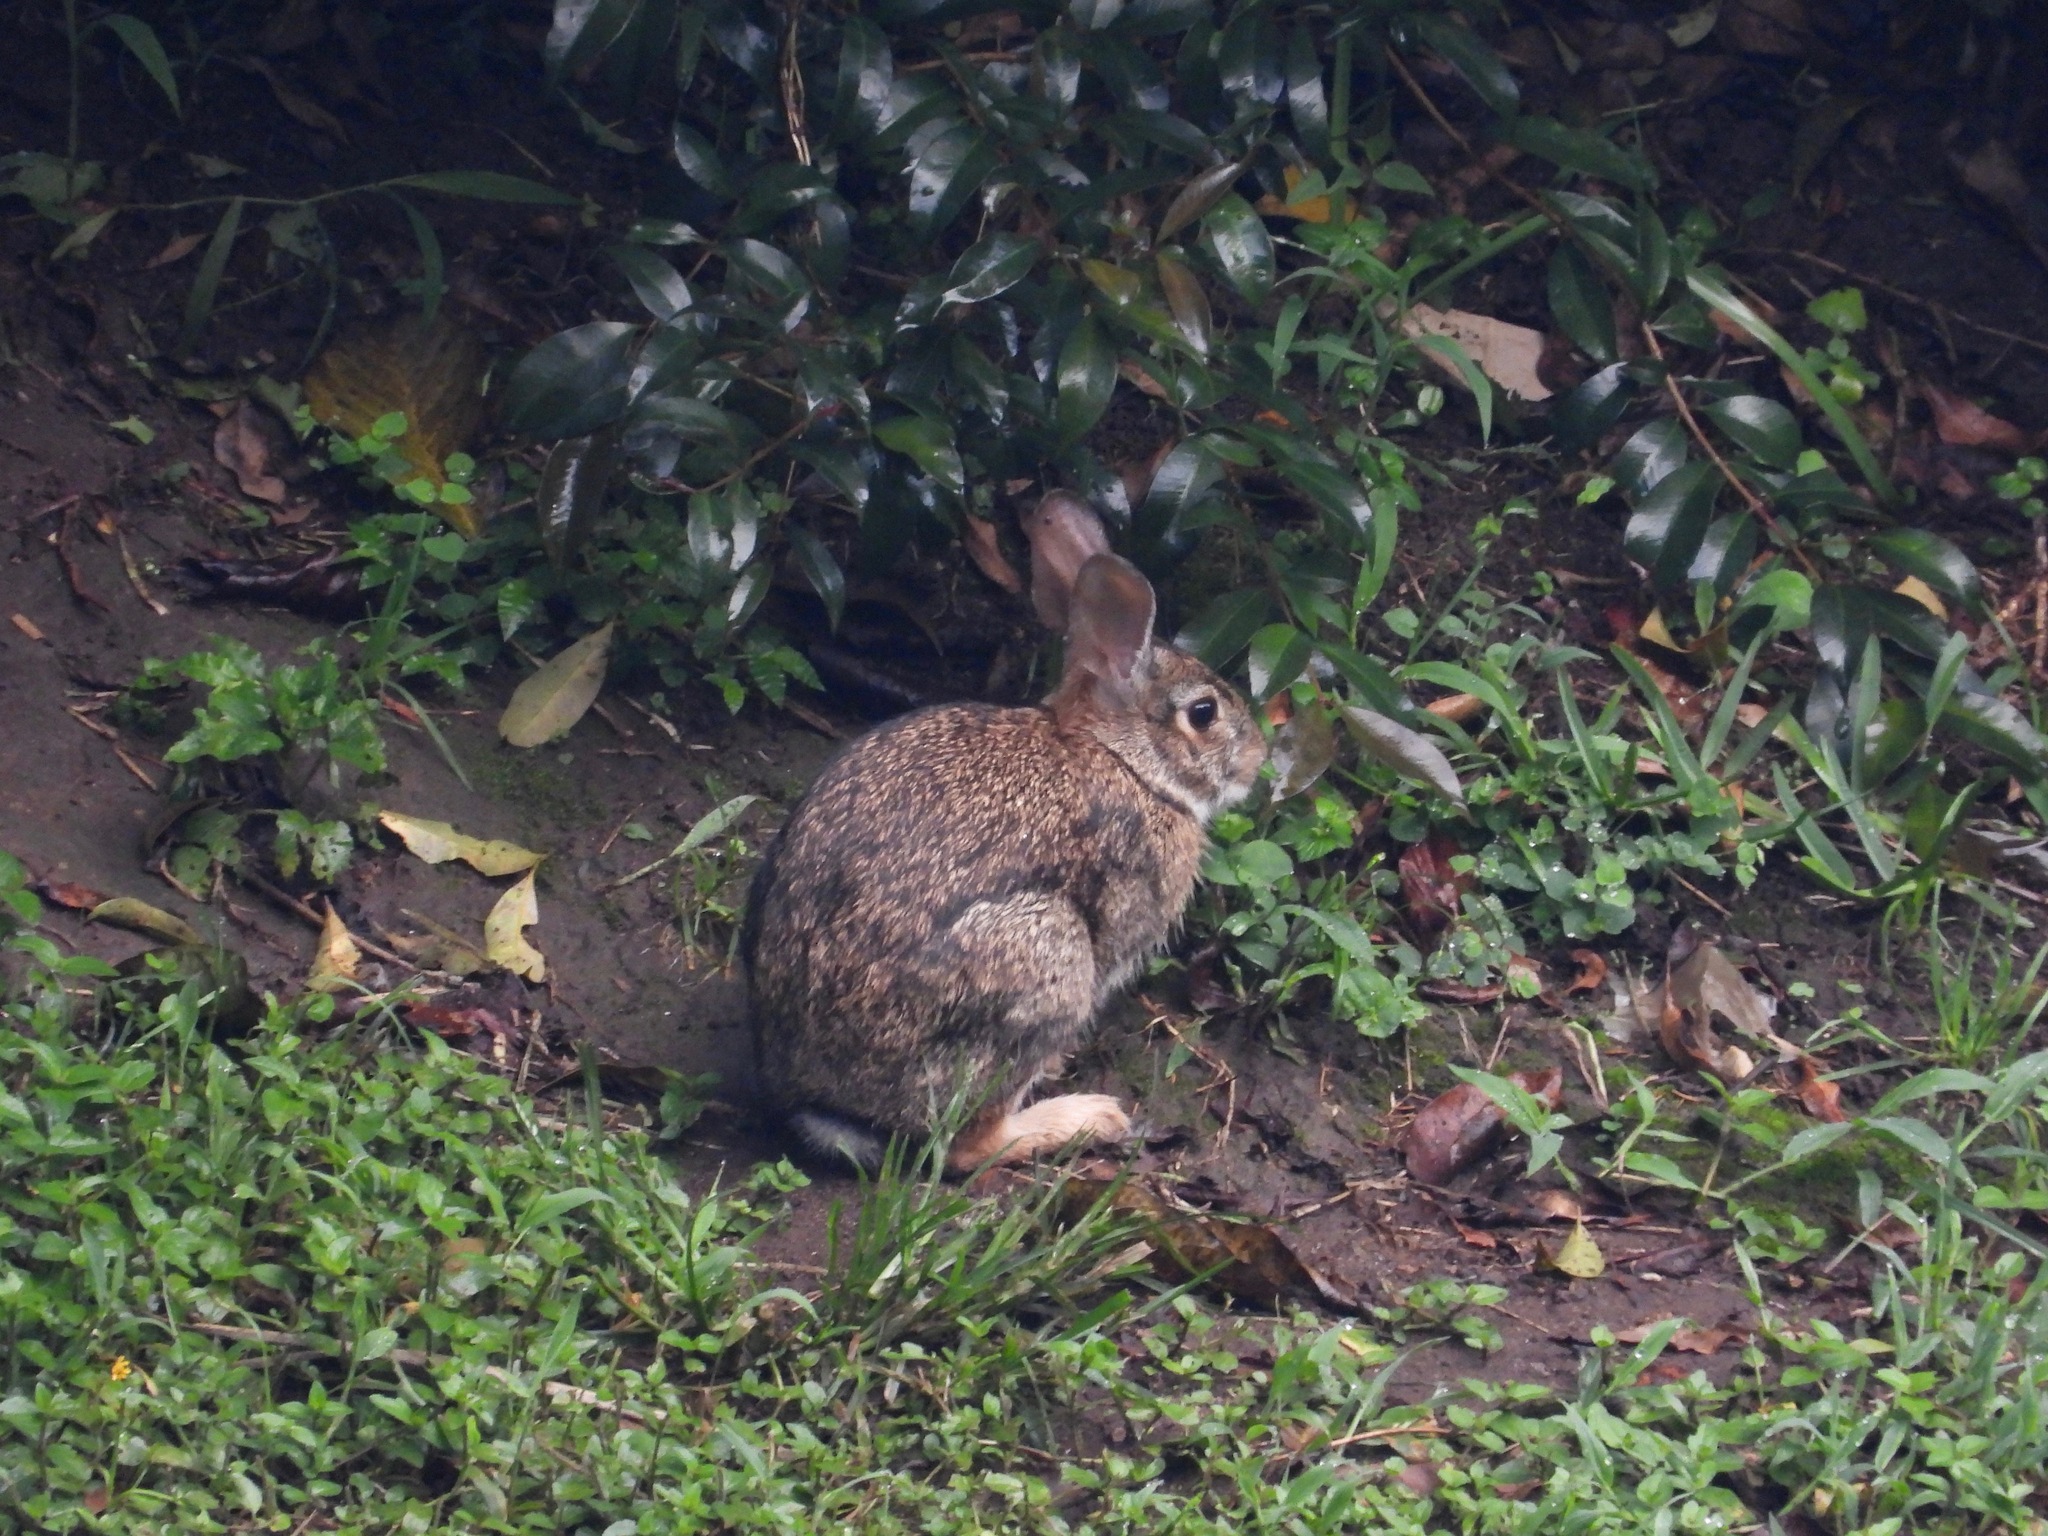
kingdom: Animalia
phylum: Chordata
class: Mammalia
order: Lagomorpha
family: Leporidae
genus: Sylvilagus
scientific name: Sylvilagus floridanus
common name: Eastern cottontail
